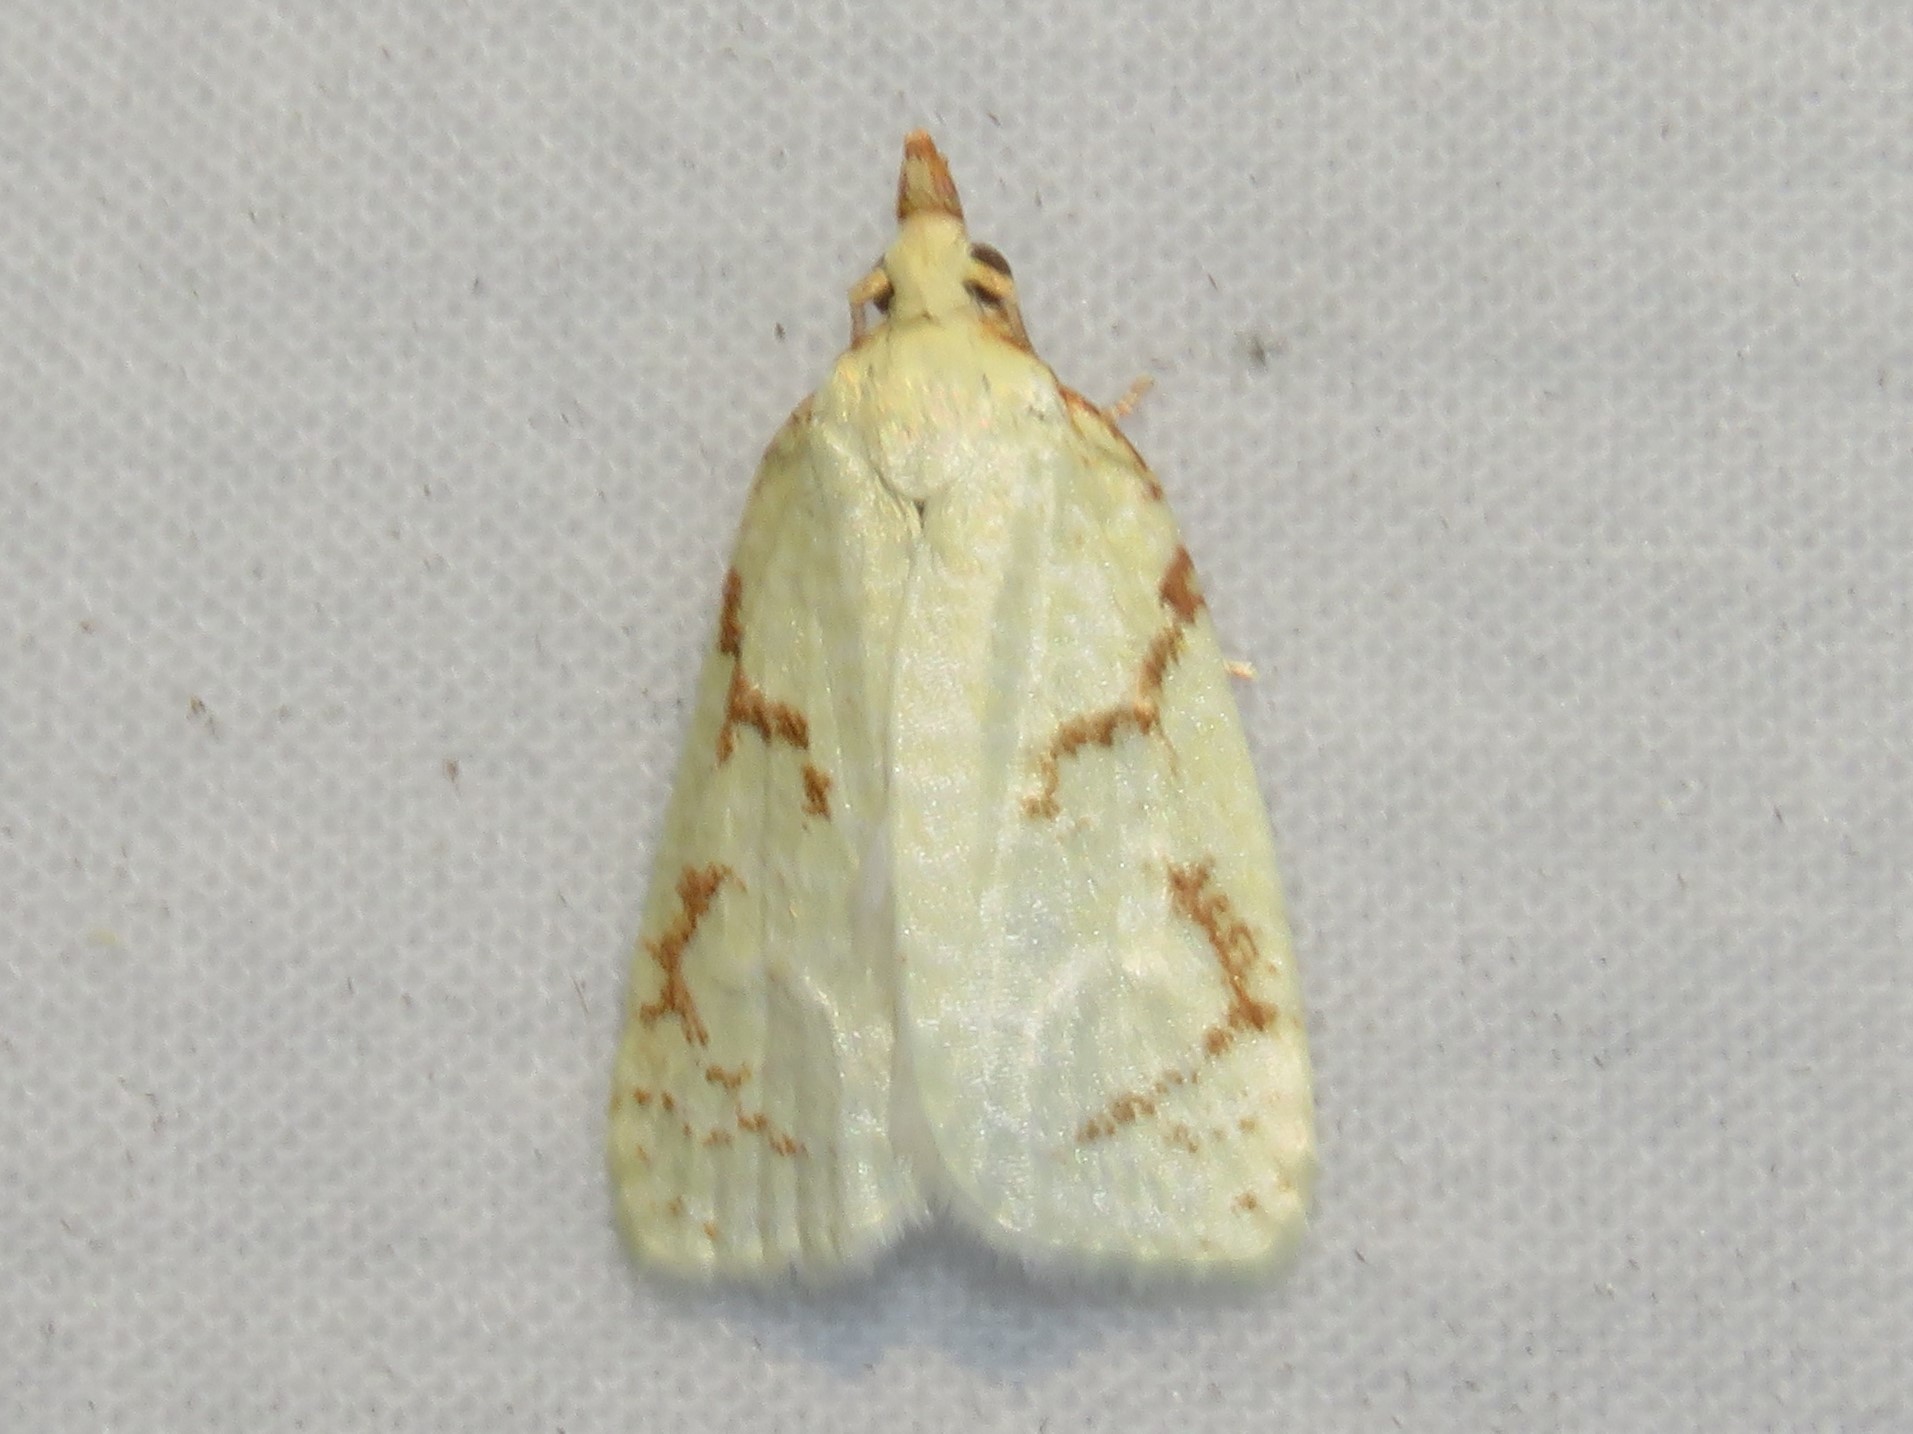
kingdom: Animalia
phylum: Arthropoda
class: Insecta
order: Lepidoptera
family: Tortricidae
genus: Cenopis
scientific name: Cenopis pettitana
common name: Maple-basswood leafroller moth
